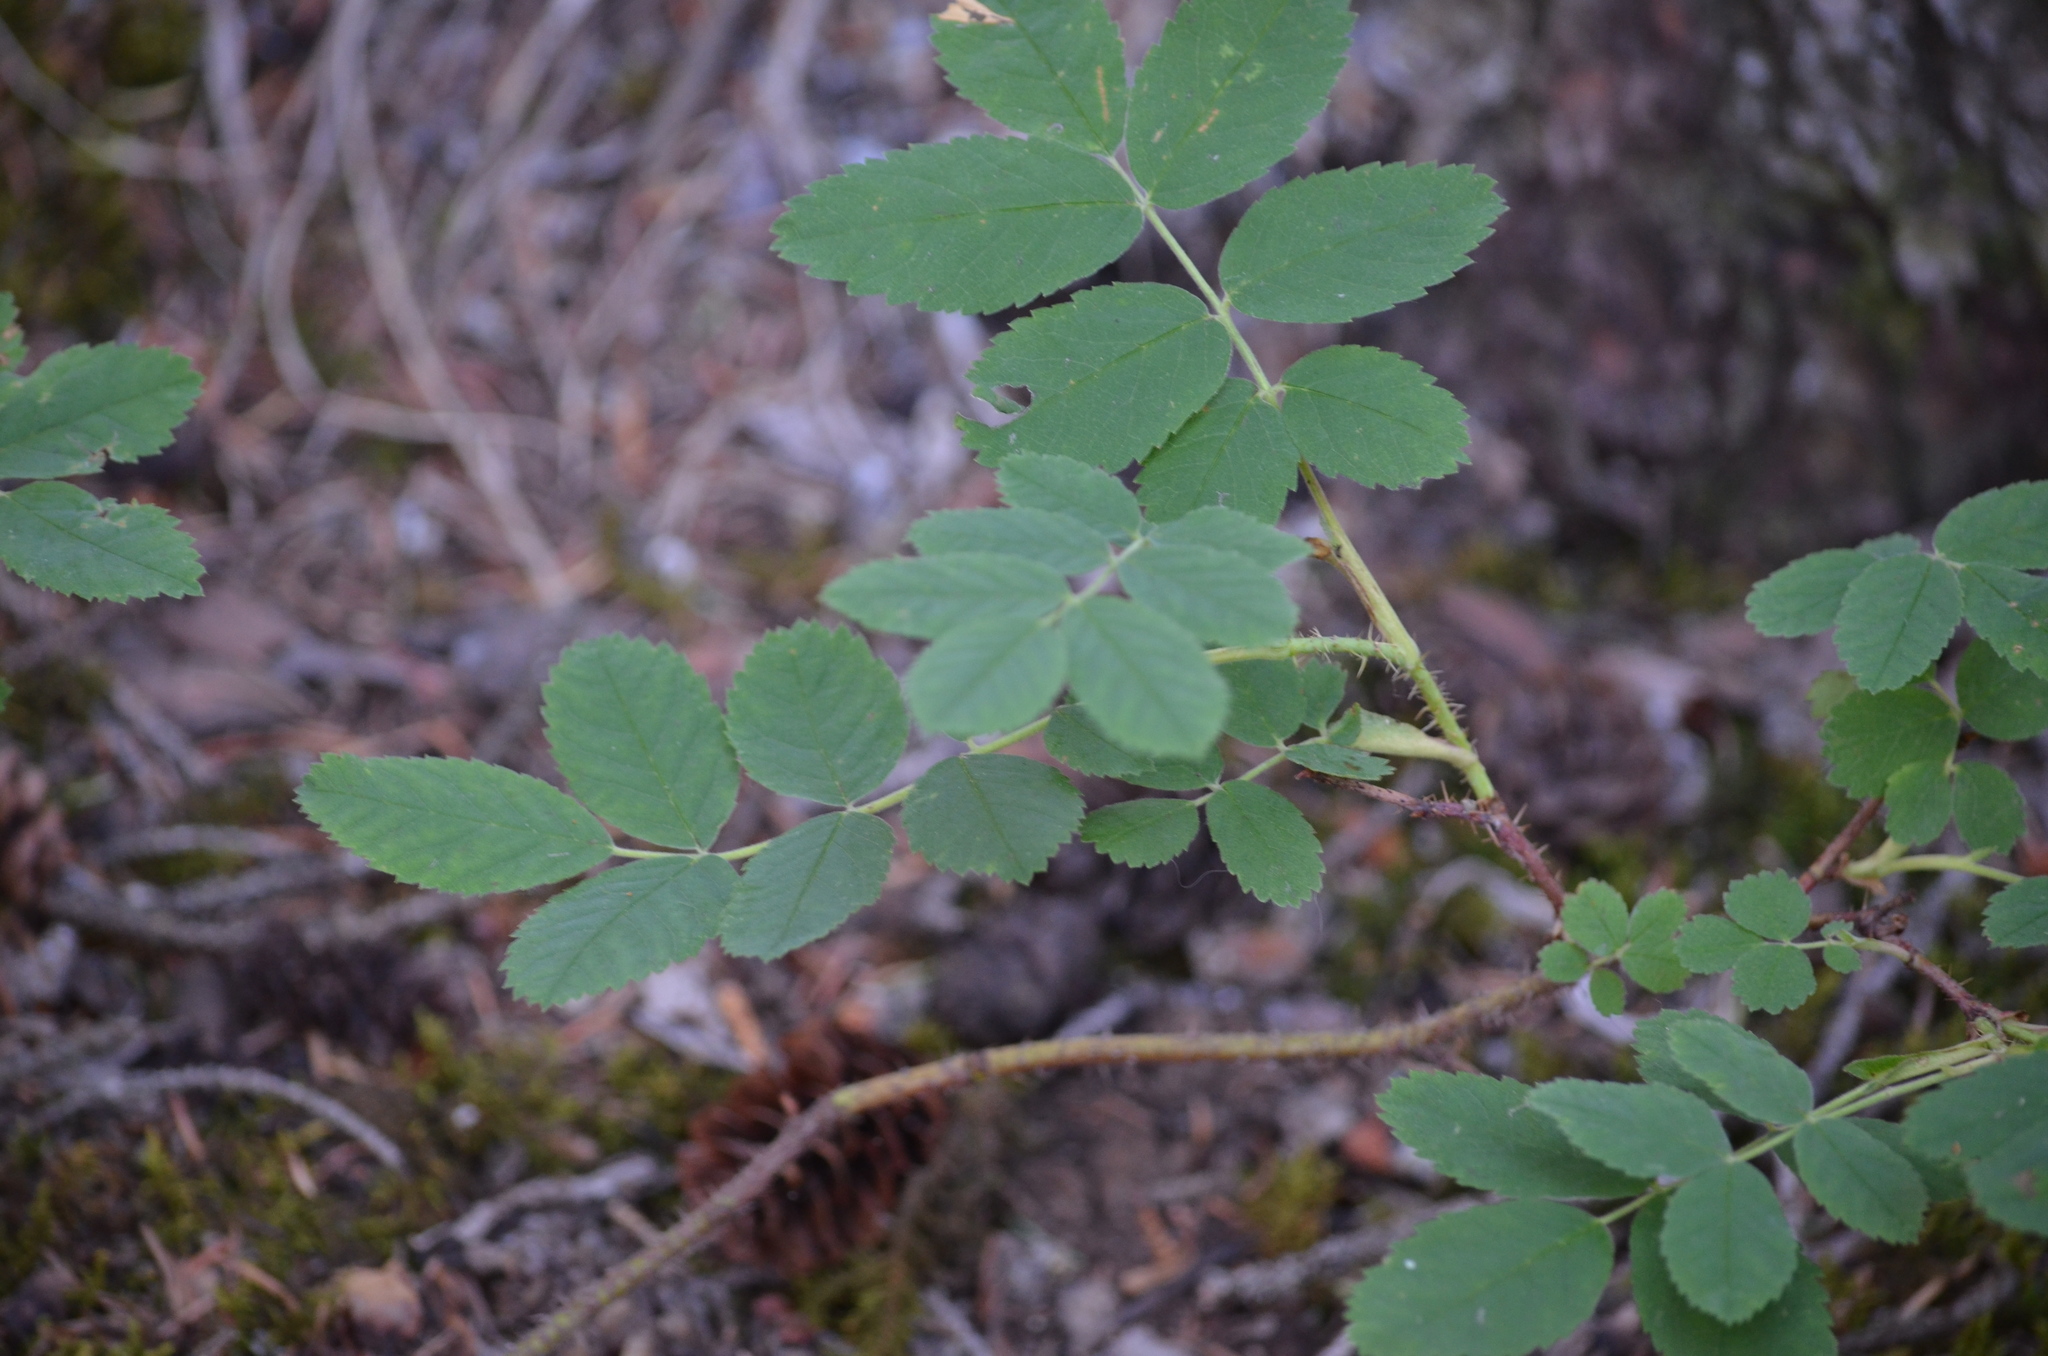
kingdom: Plantae
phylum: Tracheophyta
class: Magnoliopsida
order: Rosales
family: Rosaceae
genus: Rosa
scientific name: Rosa acicularis
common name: Prickly rose
